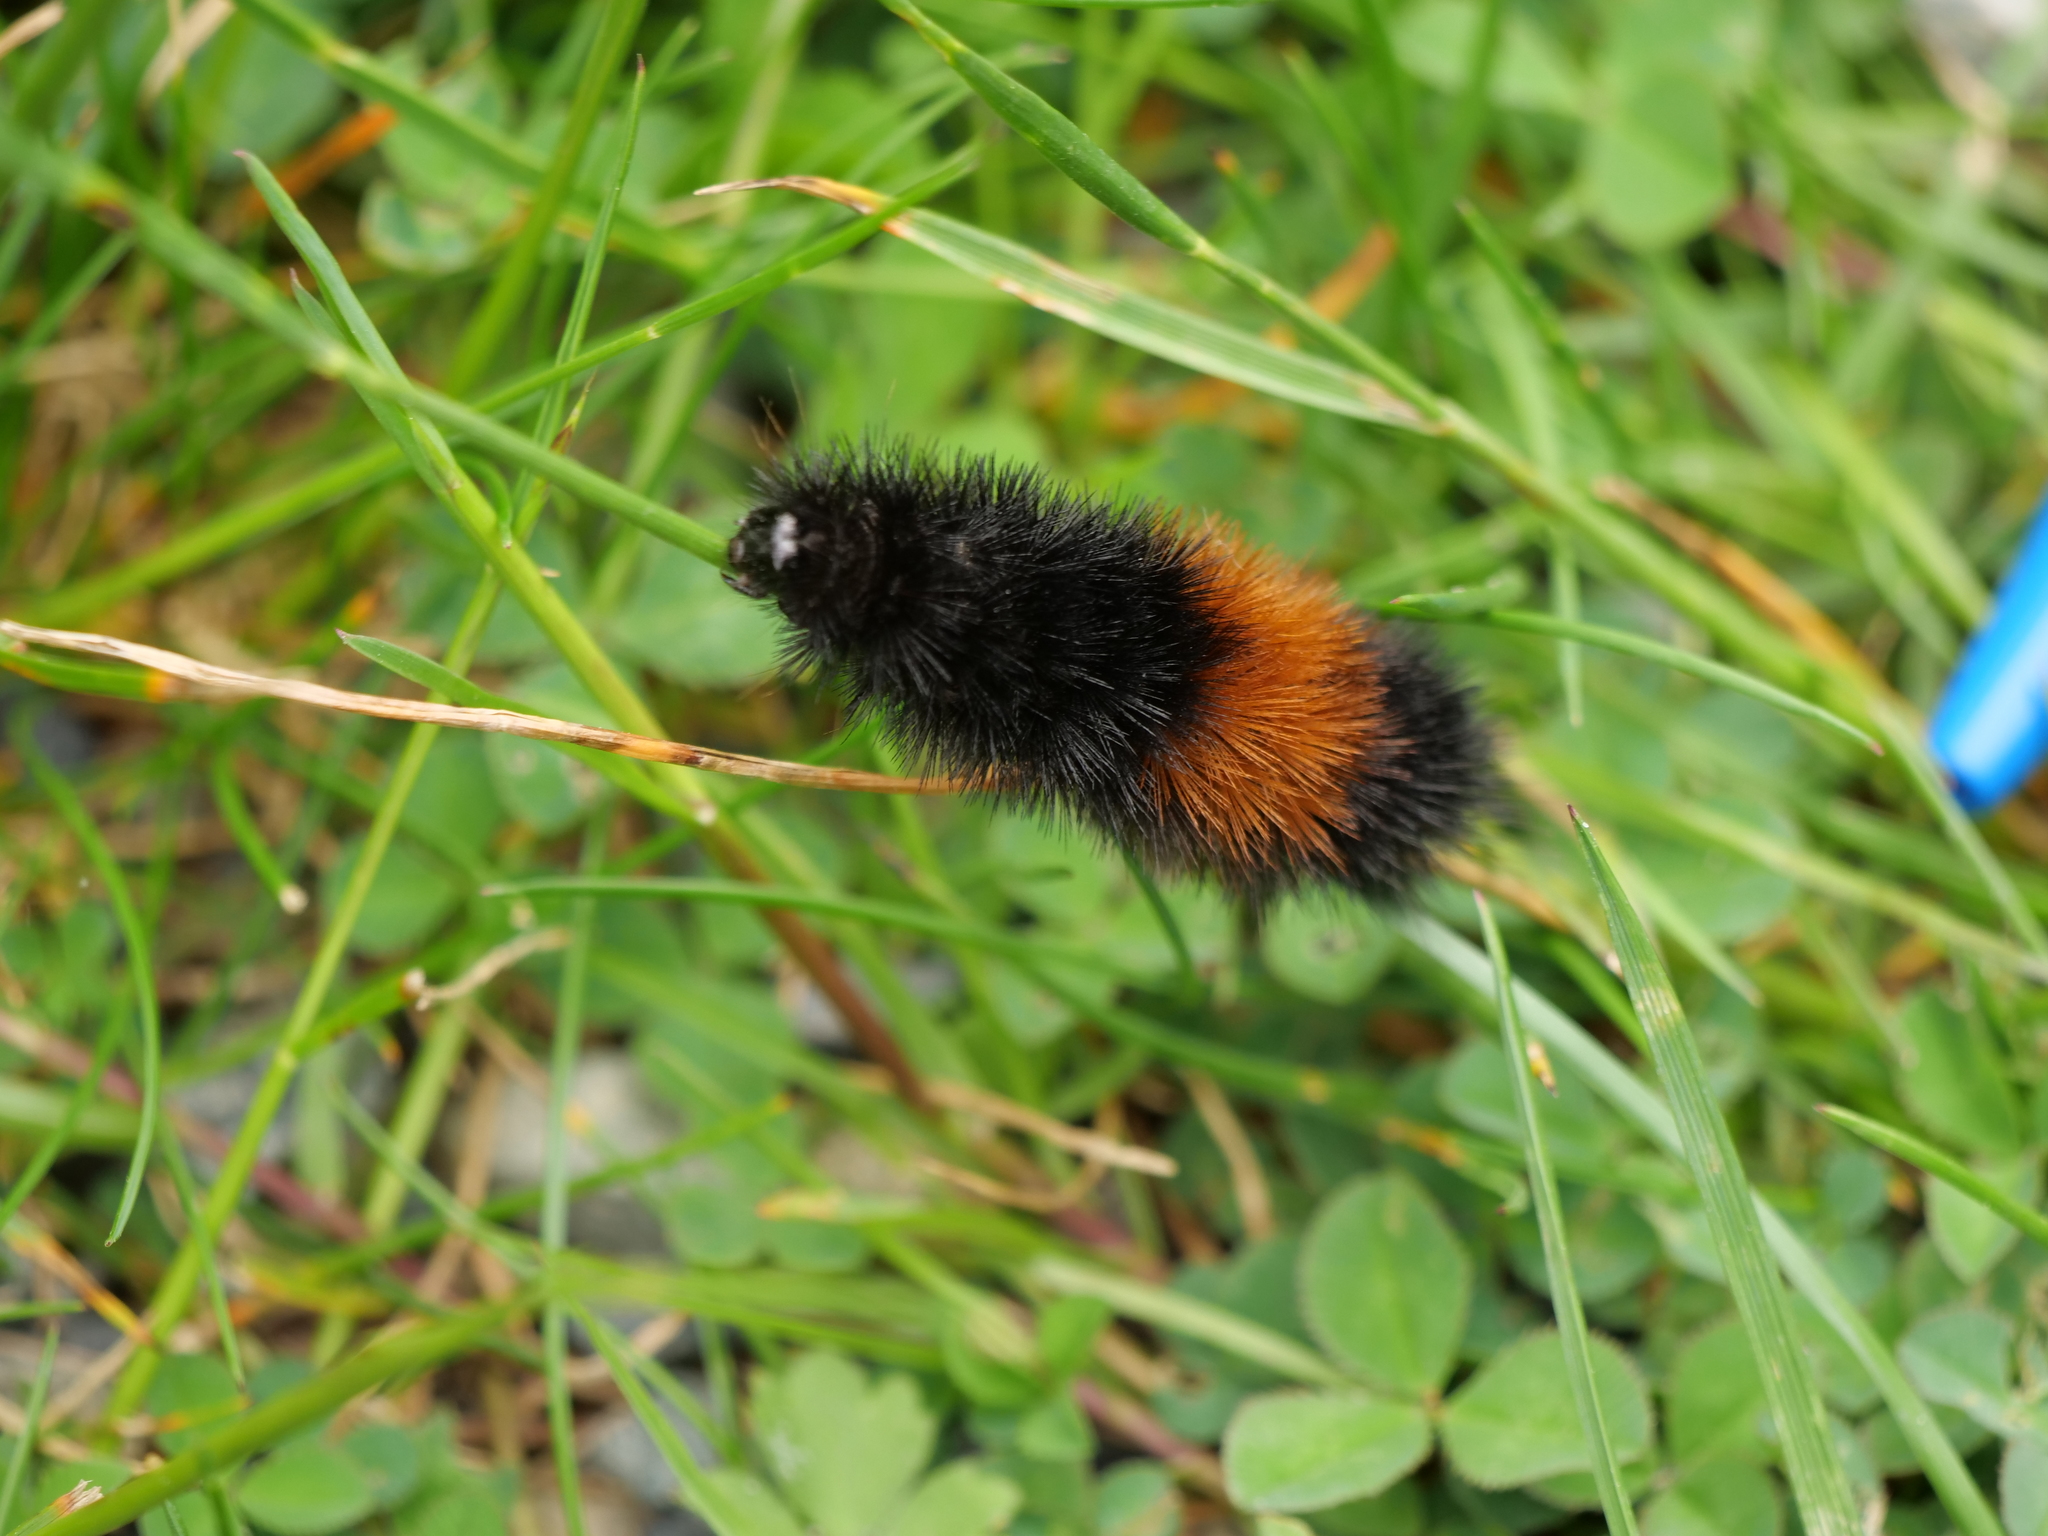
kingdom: Animalia
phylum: Arthropoda
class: Insecta
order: Lepidoptera
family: Erebidae
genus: Pyrrharctia
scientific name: Pyrrharctia isabella
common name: Isabella tiger moth
